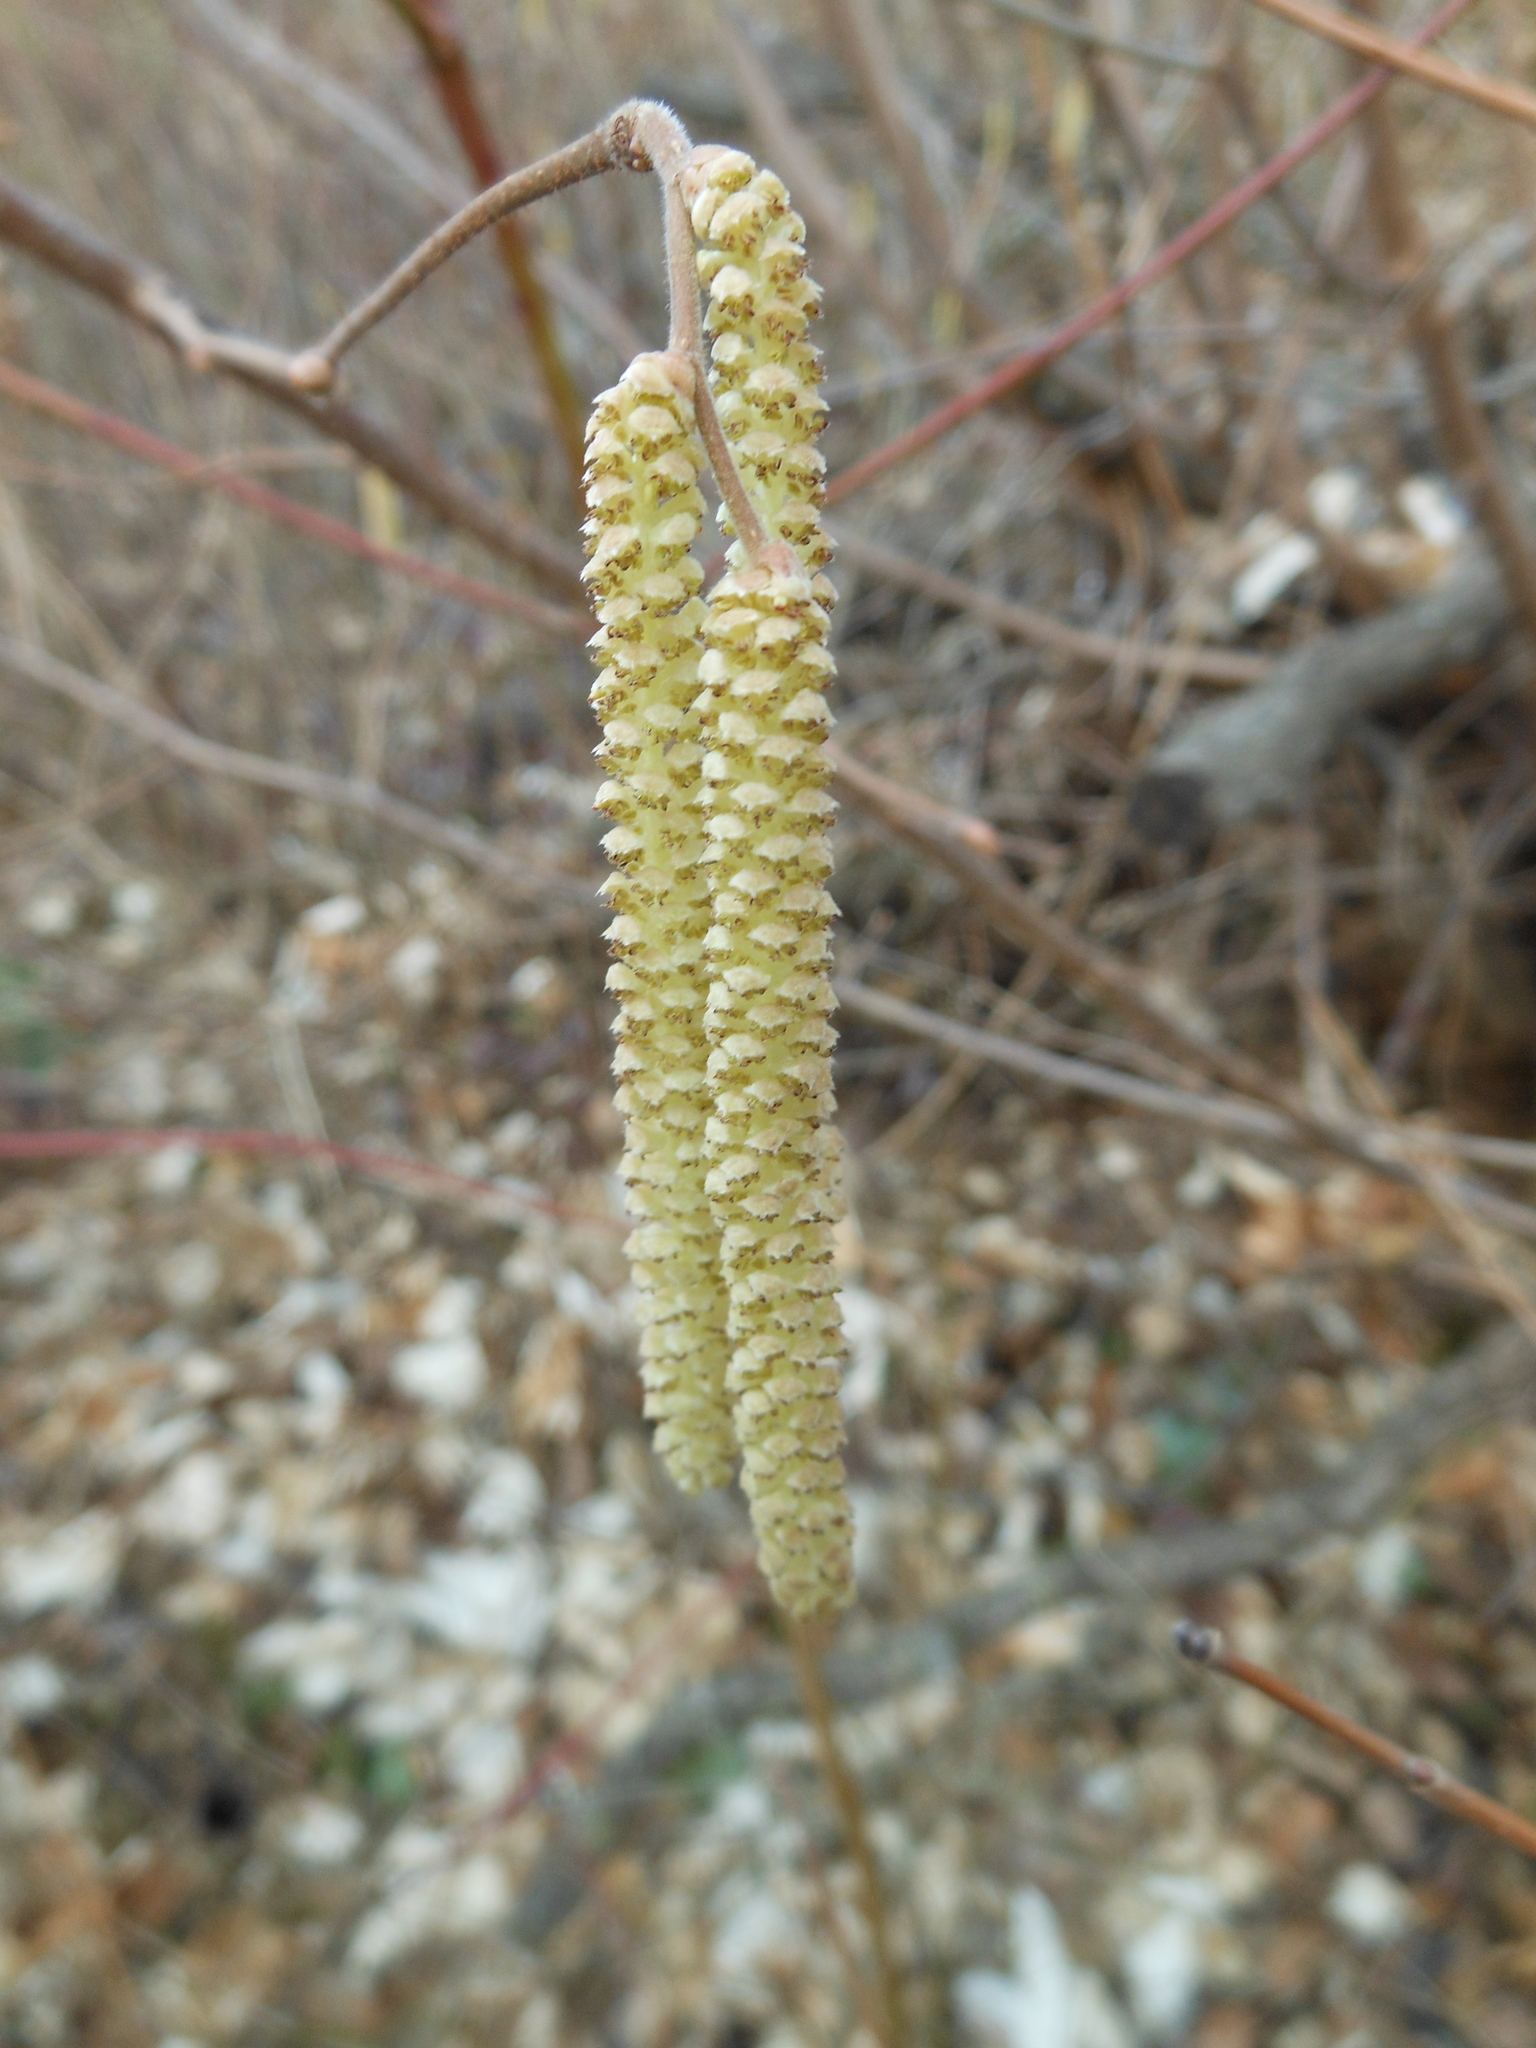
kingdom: Plantae
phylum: Tracheophyta
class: Magnoliopsida
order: Fagales
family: Betulaceae
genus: Corylus
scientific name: Corylus avellana
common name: European hazel
